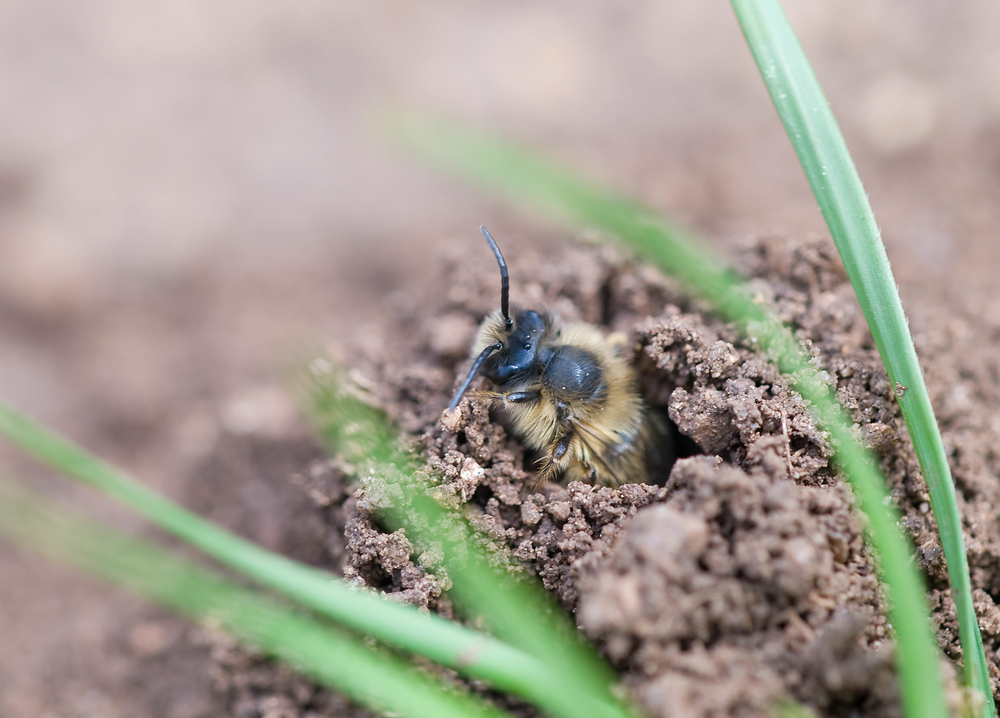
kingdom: Animalia
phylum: Arthropoda
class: Insecta
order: Hymenoptera
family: Andrenidae
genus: Andrena
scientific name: Andrena
